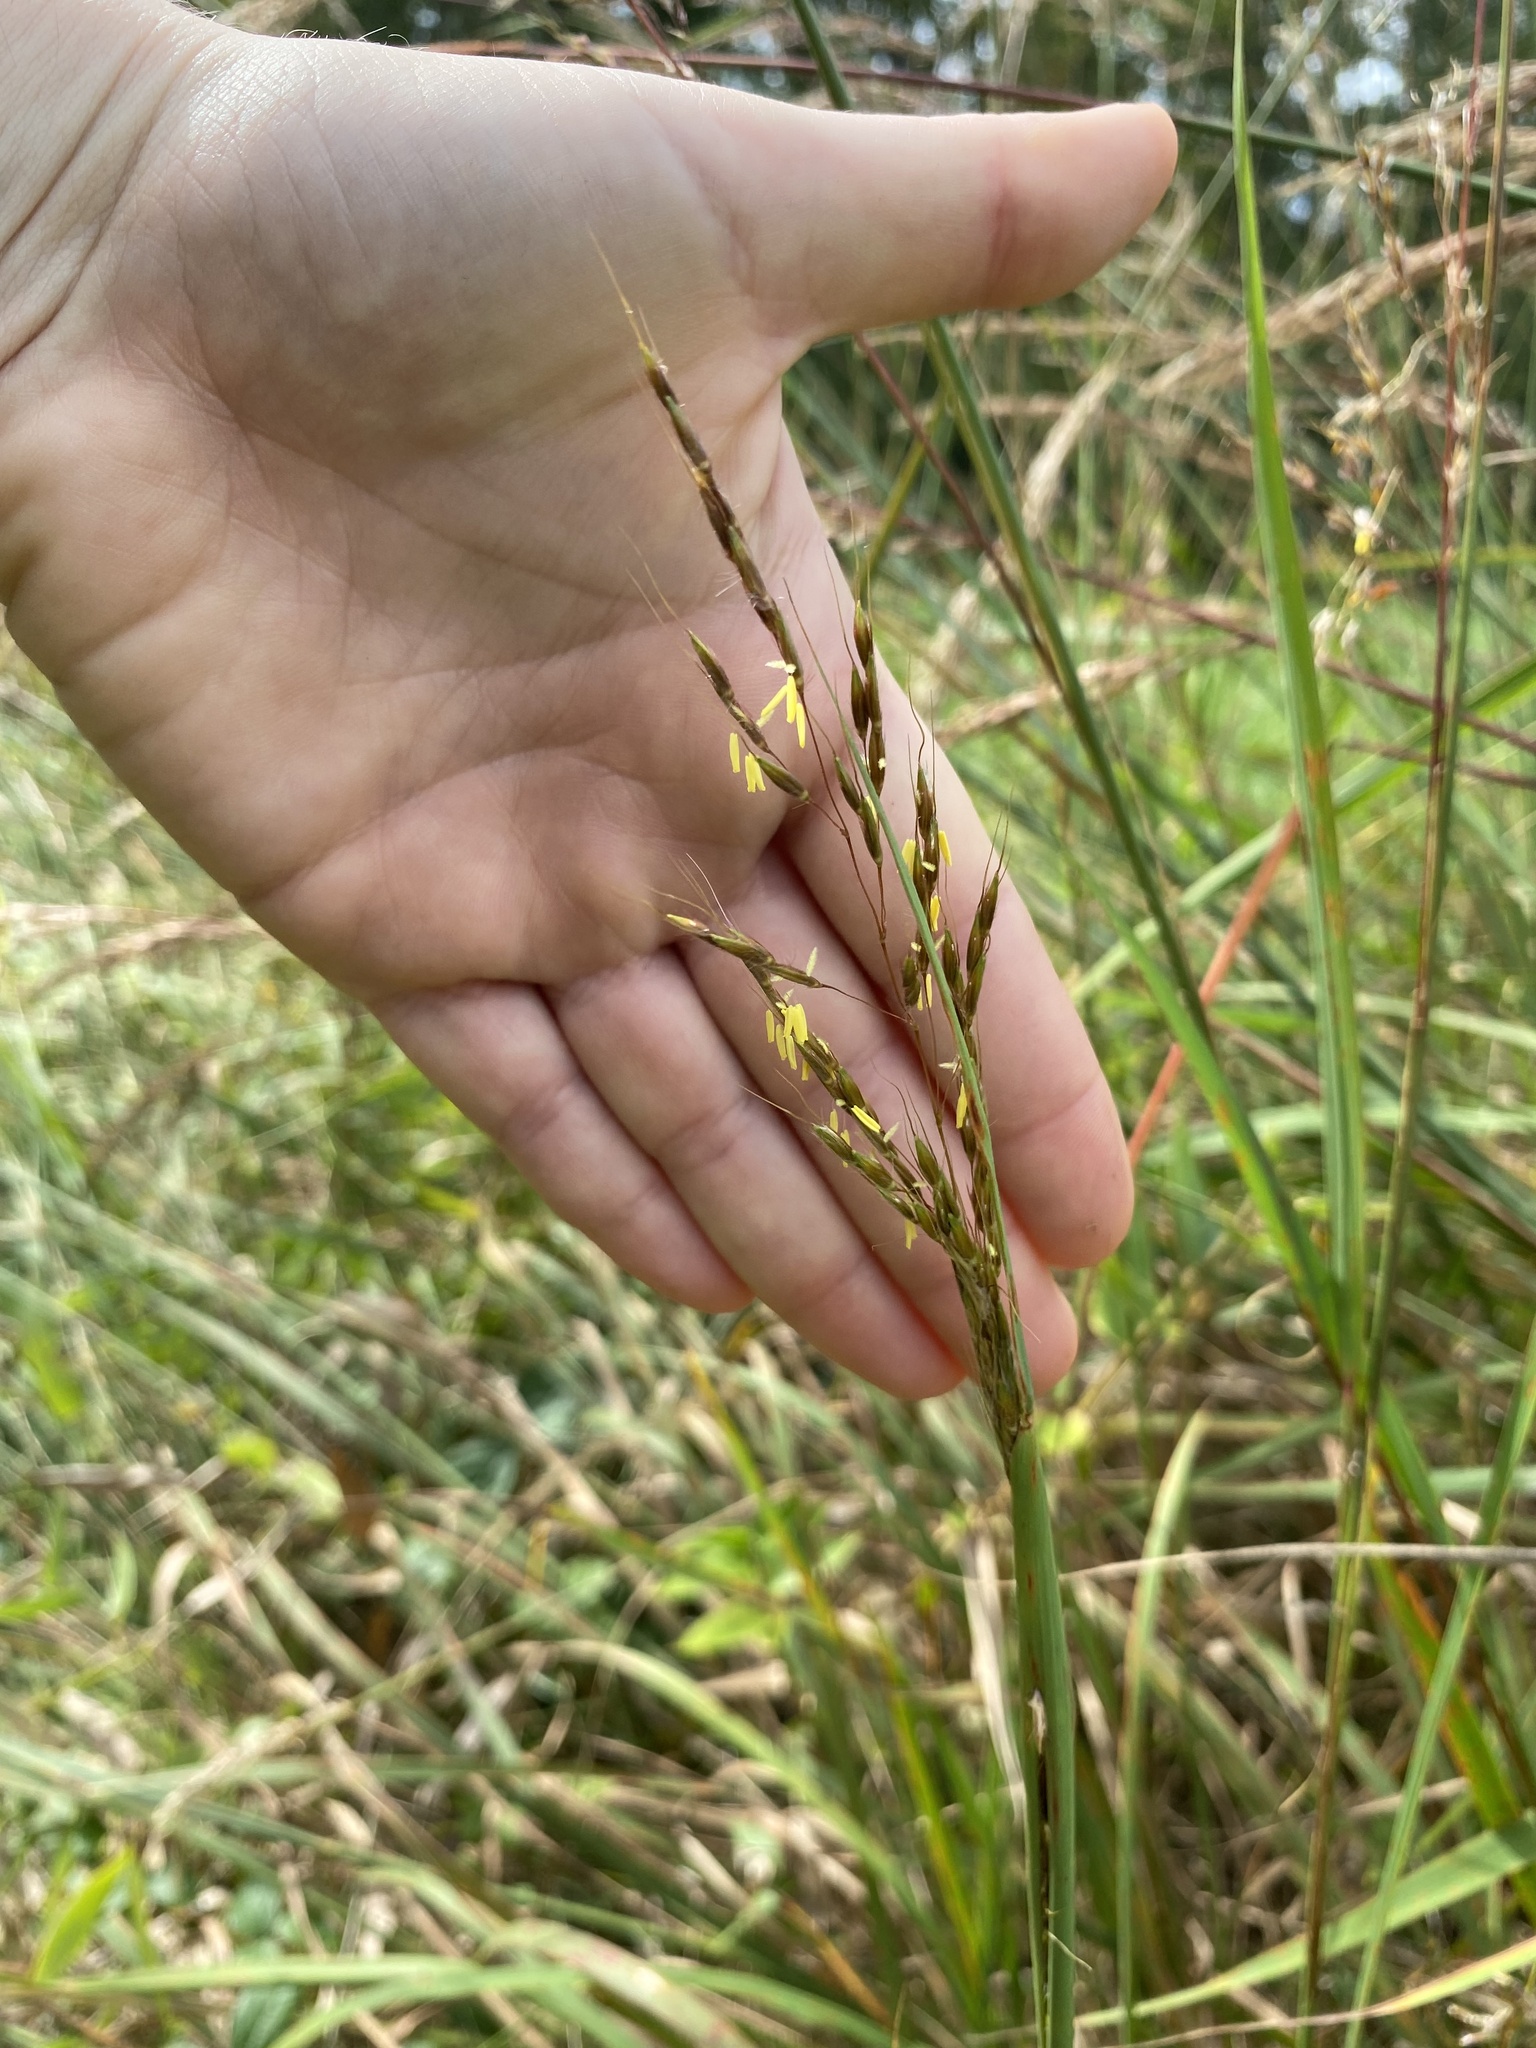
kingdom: Plantae
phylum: Tracheophyta
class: Liliopsida
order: Poales
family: Poaceae
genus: Sorghastrum
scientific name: Sorghastrum nutans
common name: Indian grass
